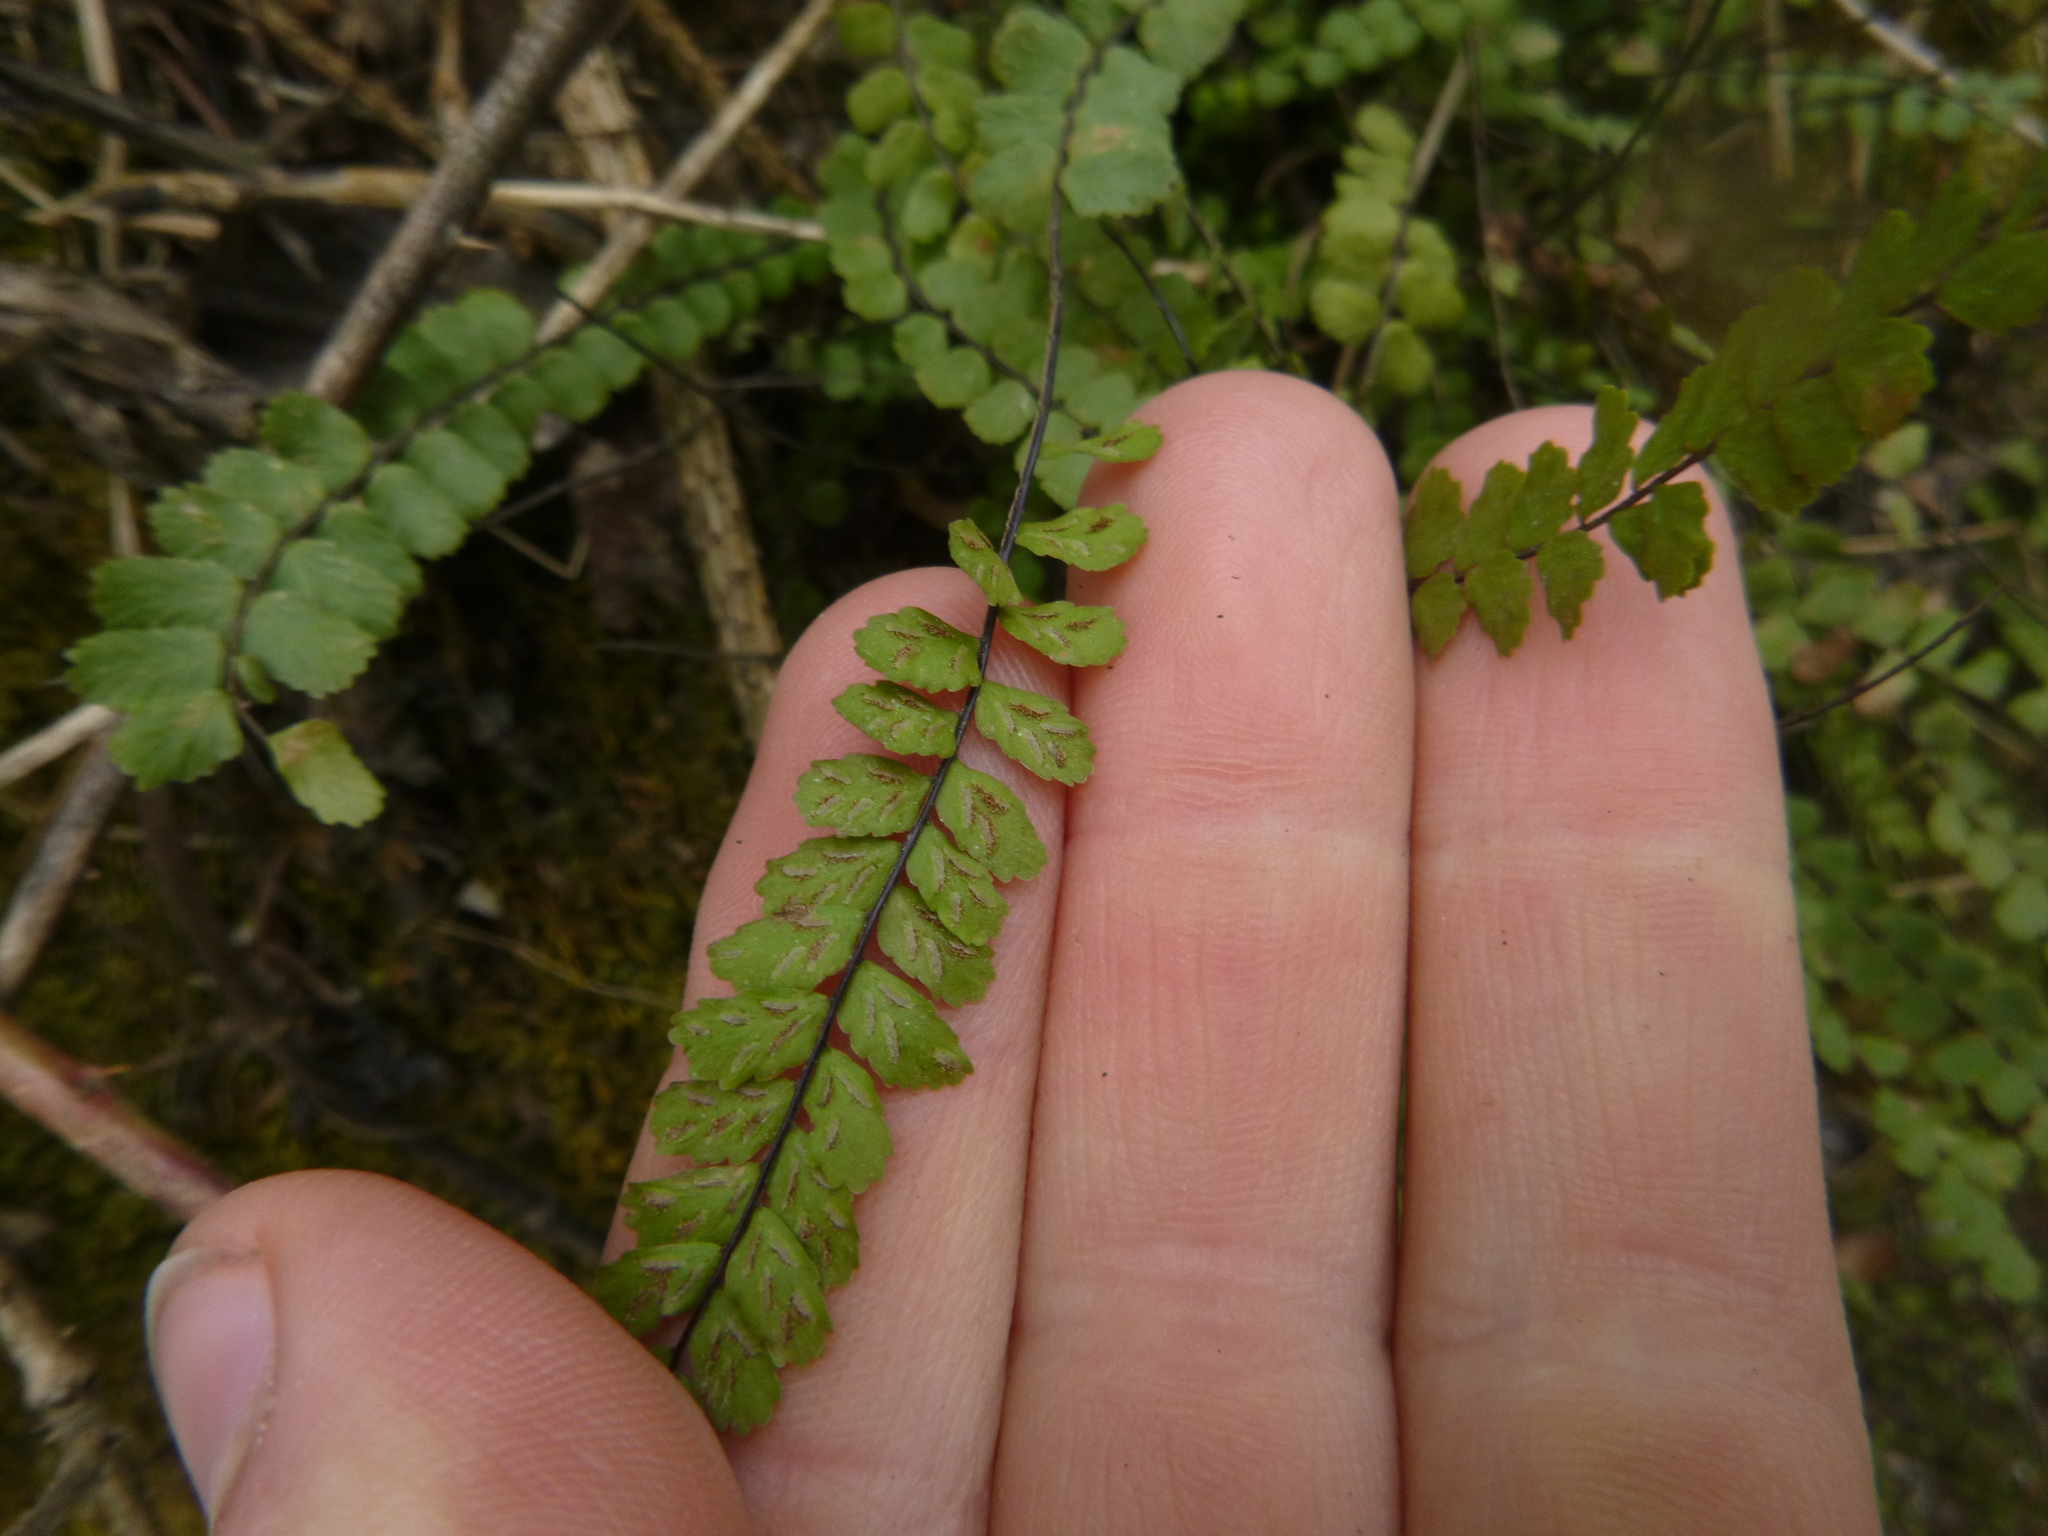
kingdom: Plantae
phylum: Tracheophyta
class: Polypodiopsida
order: Polypodiales
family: Aspleniaceae
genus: Asplenium
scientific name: Asplenium trichomanes
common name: Maidenhair spleenwort
